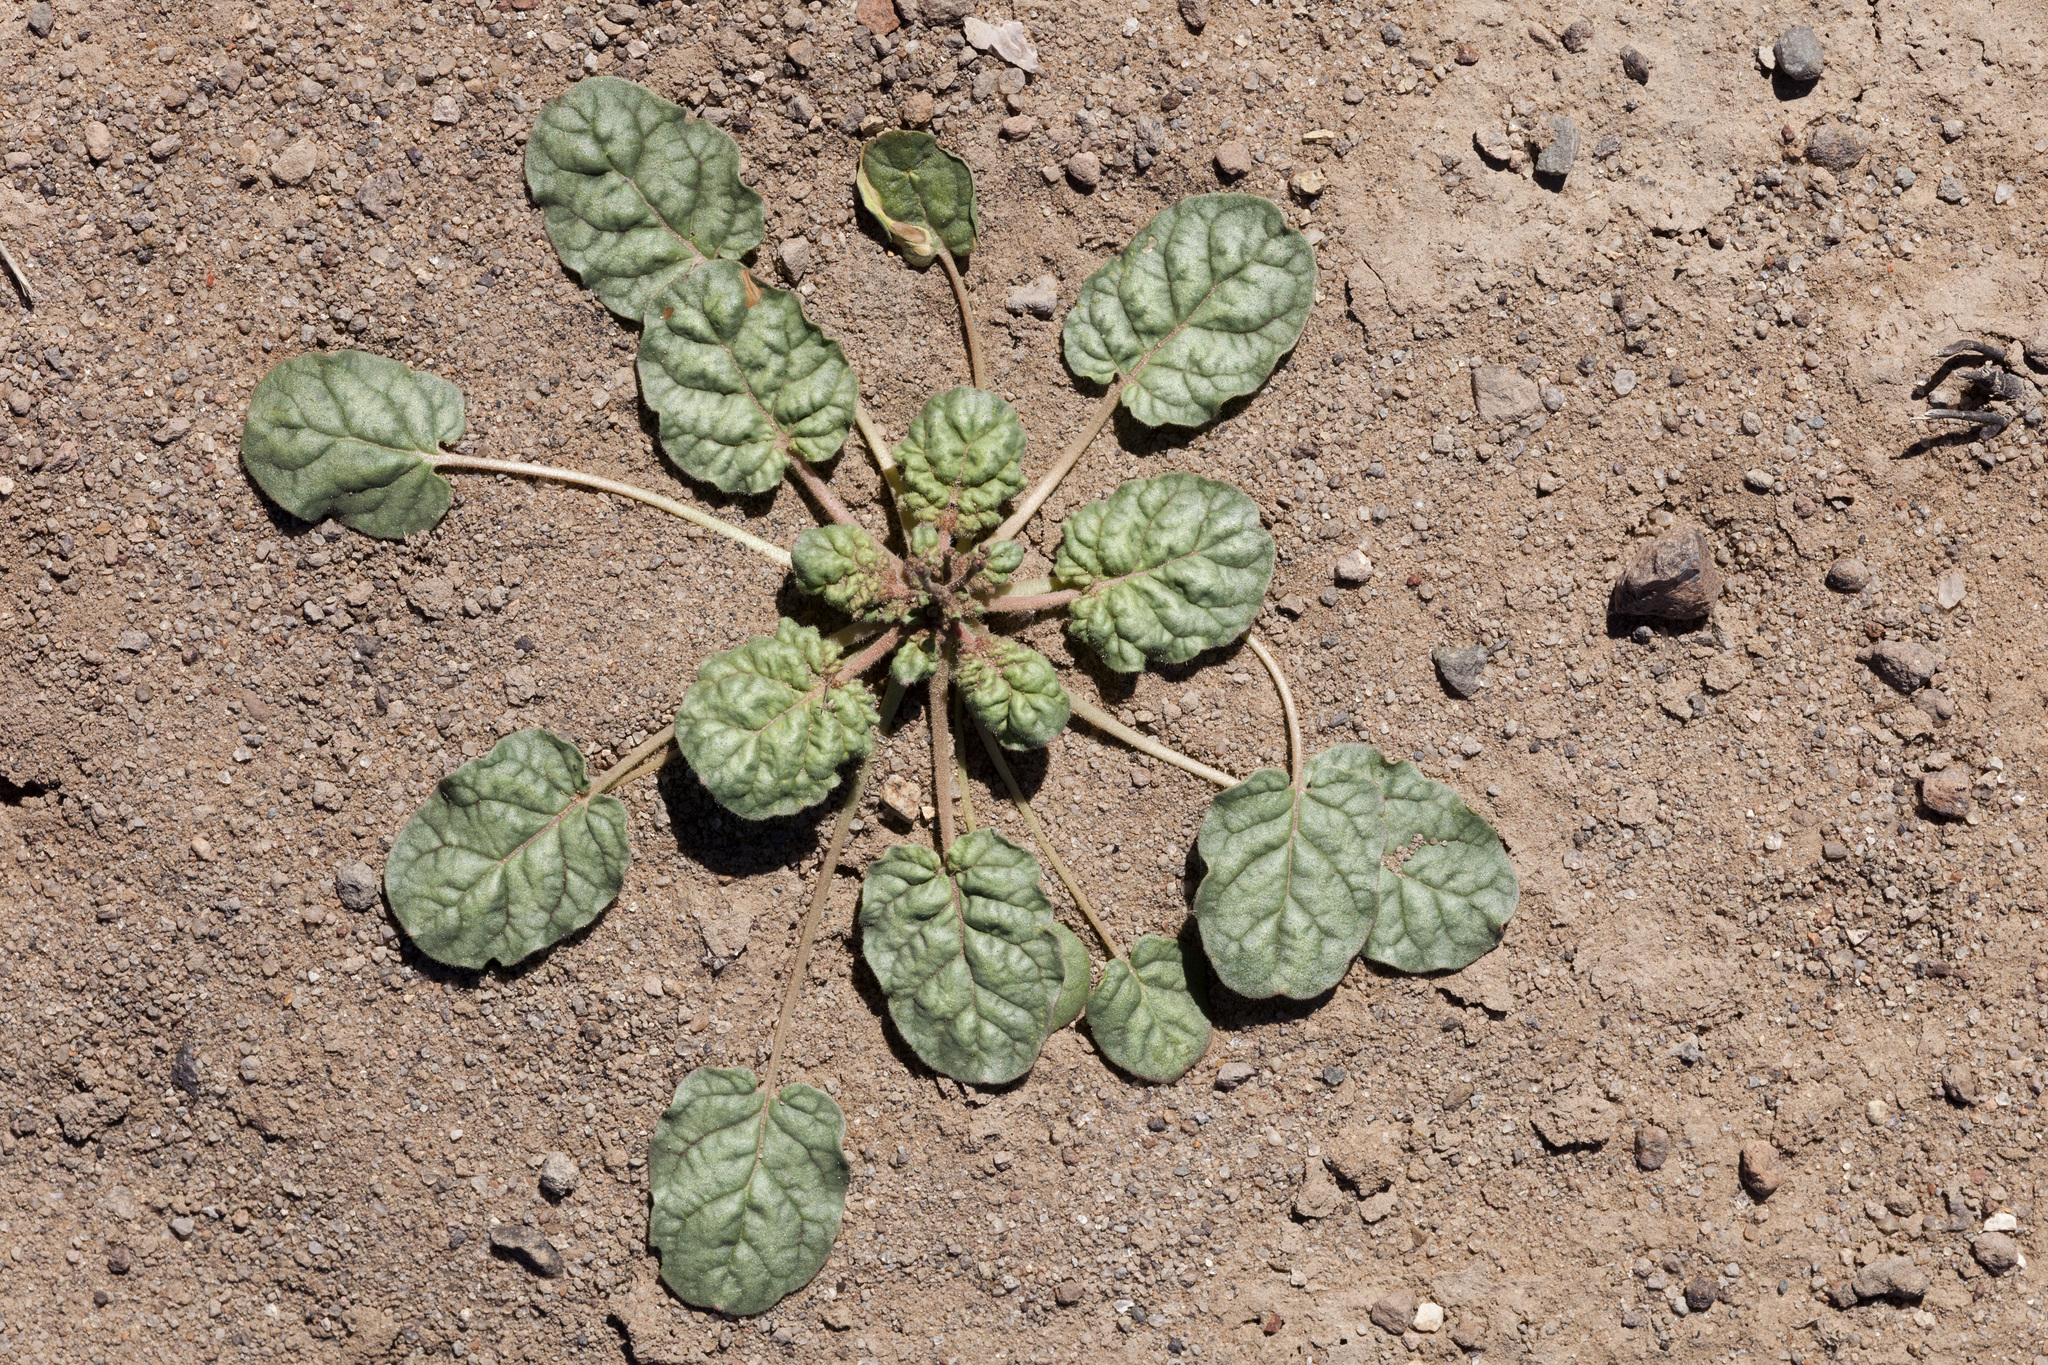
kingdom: Plantae
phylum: Tracheophyta
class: Magnoliopsida
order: Caryophyllales
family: Polygonaceae
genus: Eriogonum
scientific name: Eriogonum trichopes
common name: Little desert trumpet
